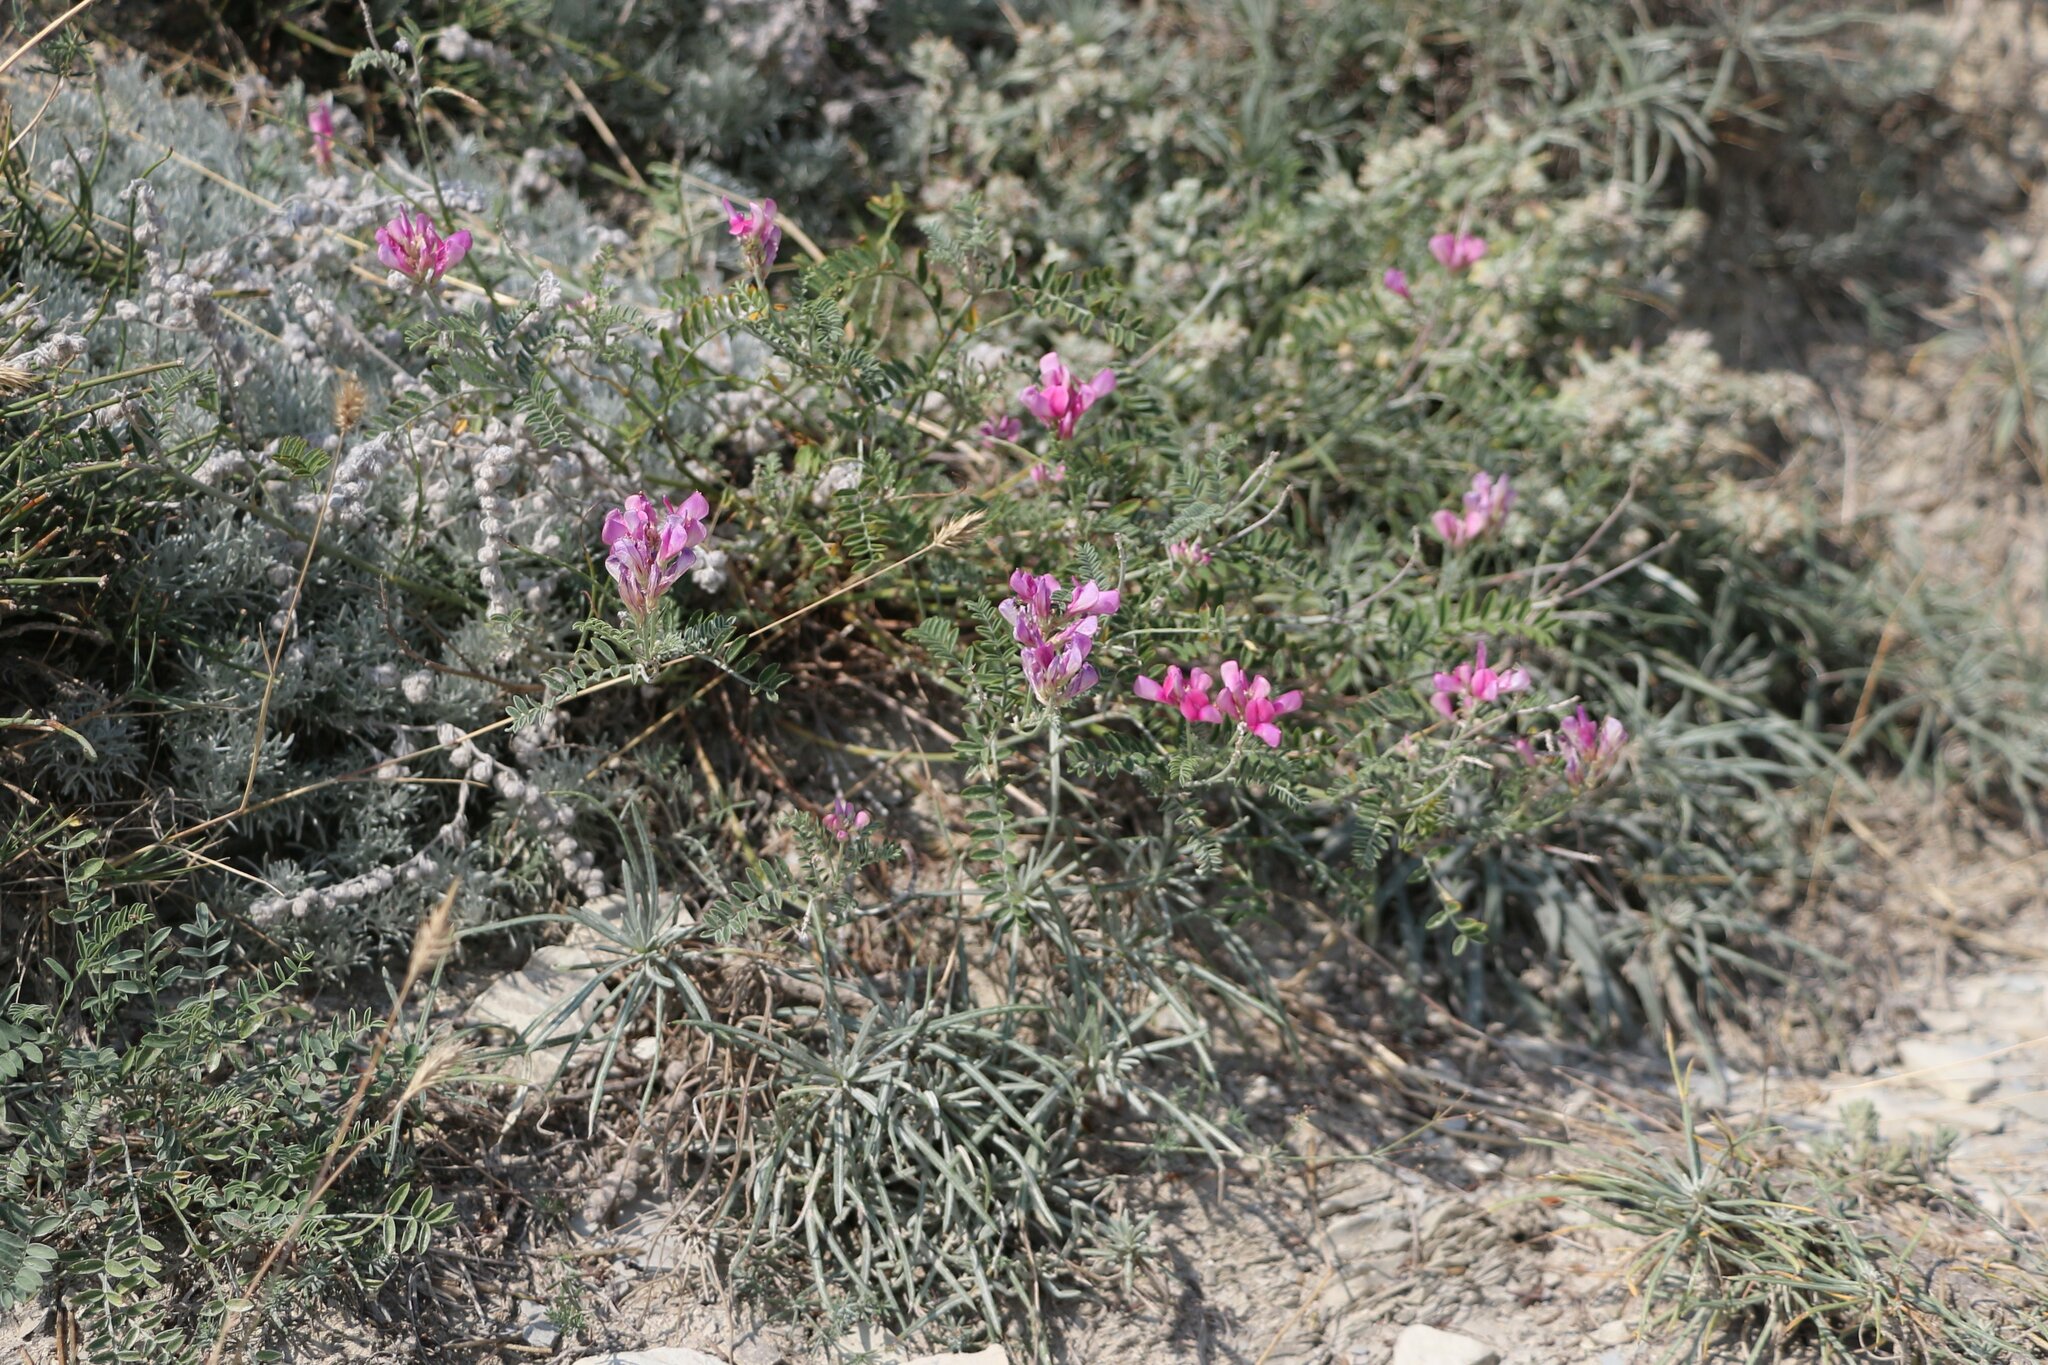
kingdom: Plantae
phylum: Tracheophyta
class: Magnoliopsida
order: Fabales
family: Fabaceae
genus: Hedysarum
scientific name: Hedysarum tauricum
